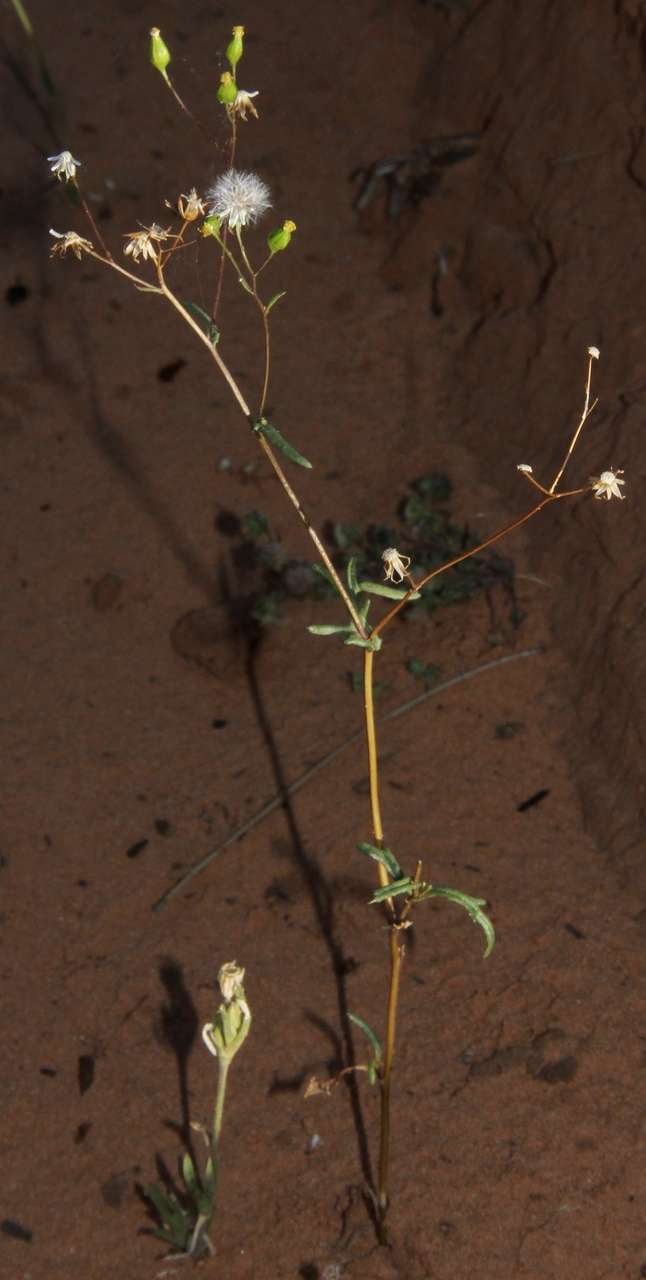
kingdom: Plantae
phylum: Tracheophyta
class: Magnoliopsida
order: Asterales
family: Asteraceae
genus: Senecio
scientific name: Senecio glossanthus
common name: Slender groundsel
